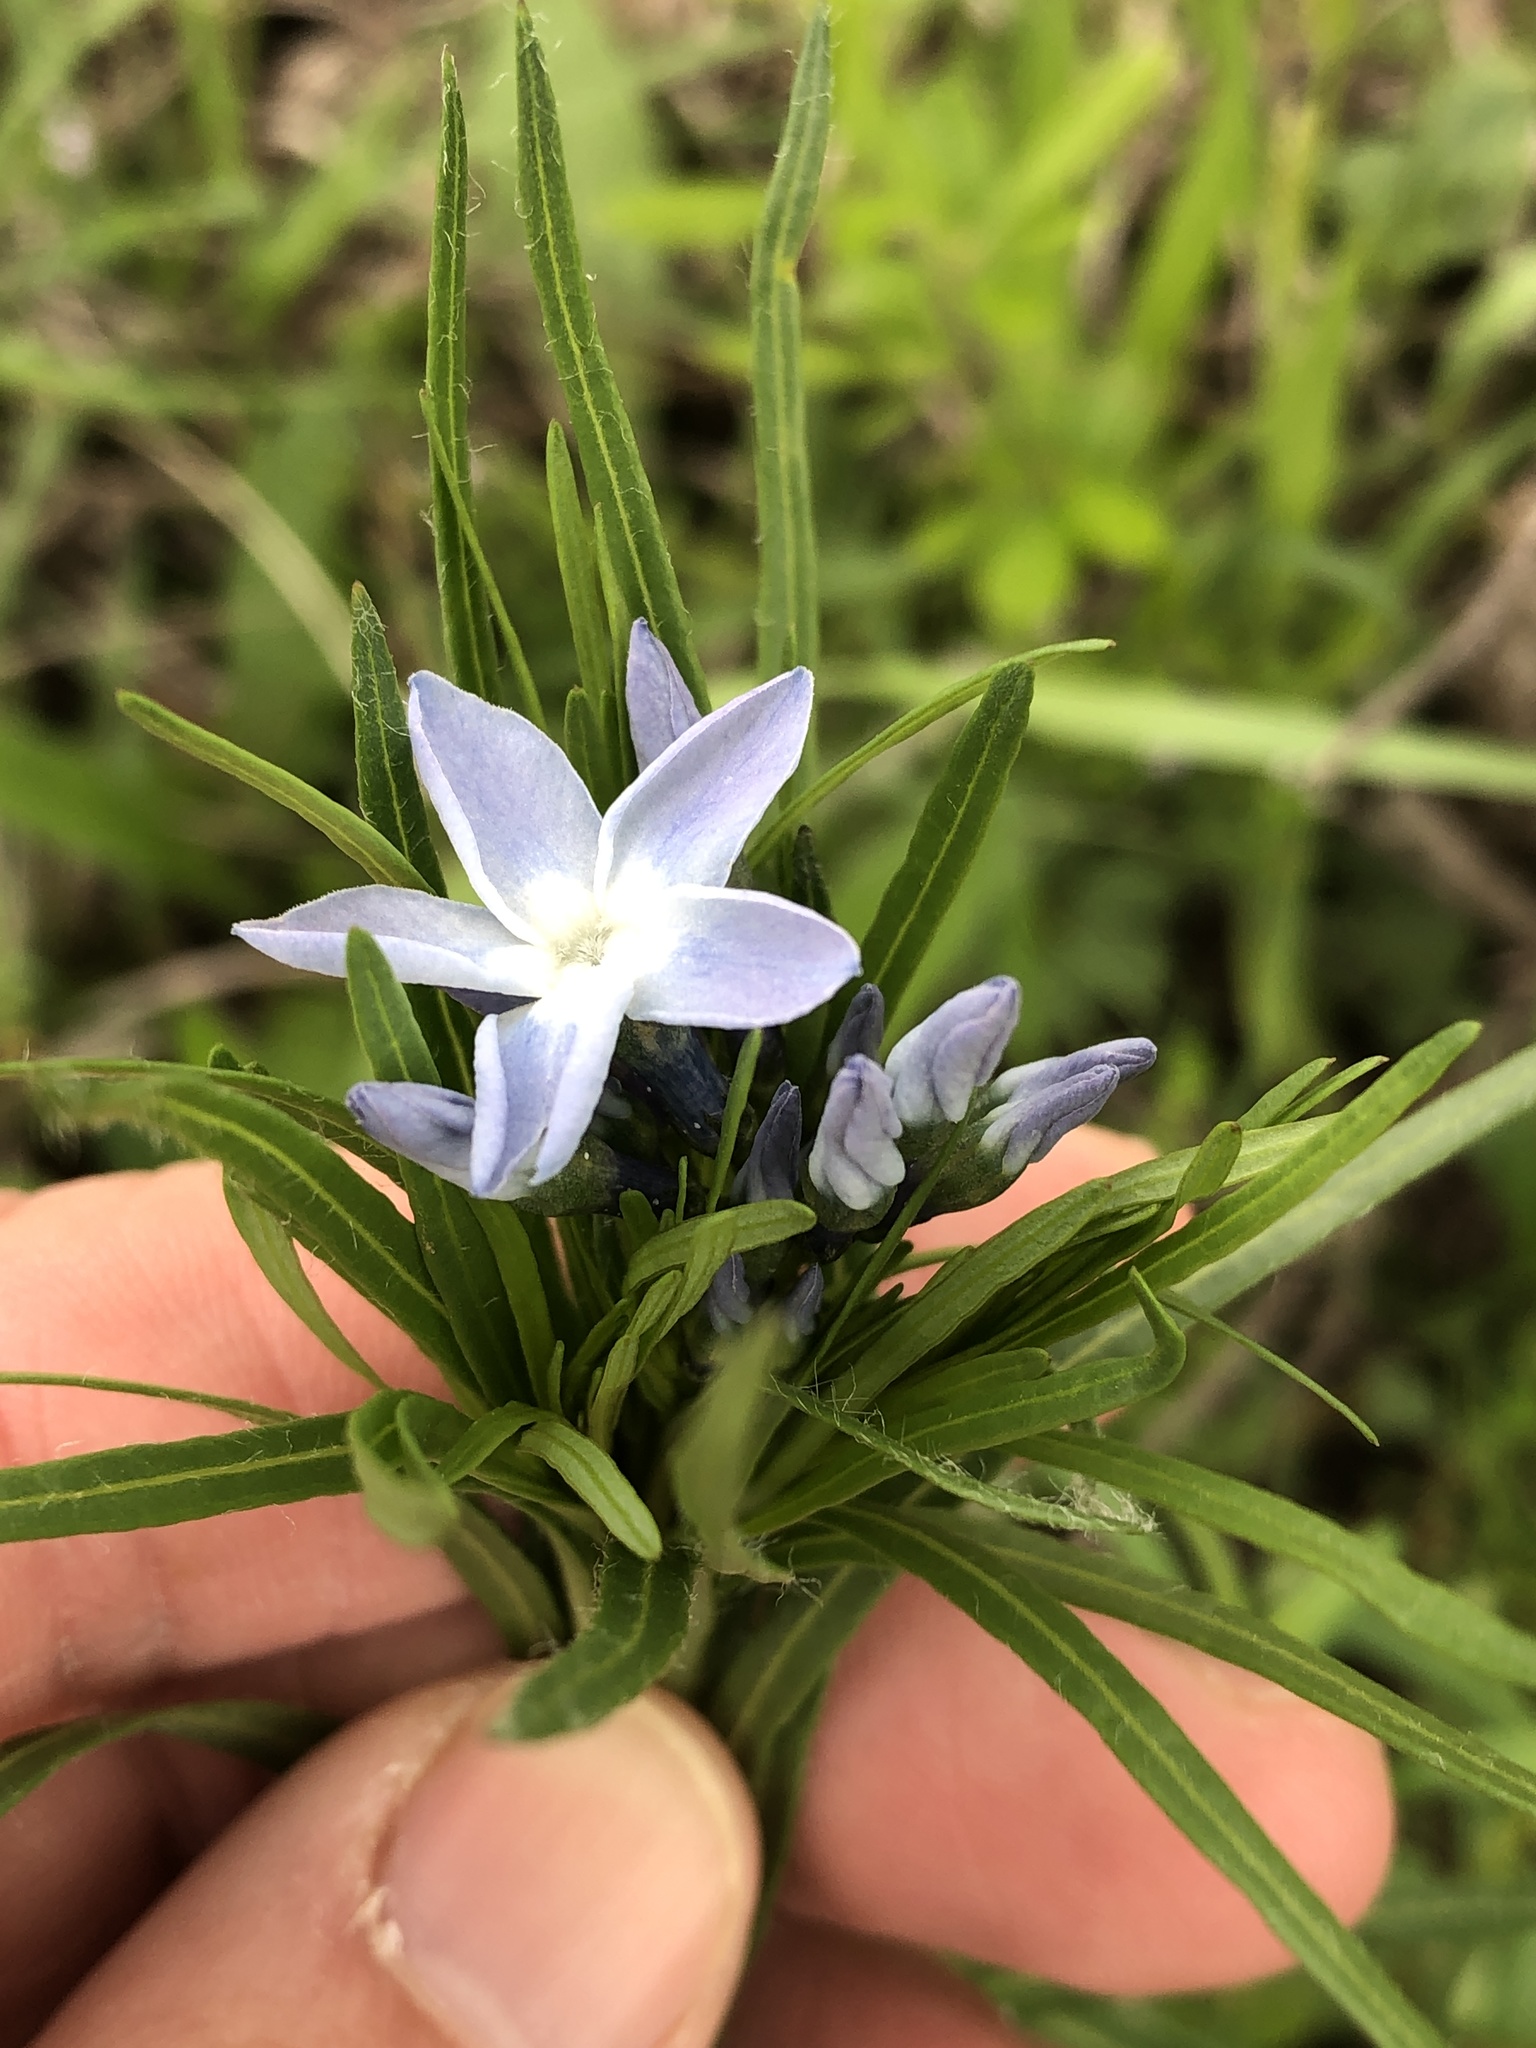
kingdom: Plantae
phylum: Tracheophyta
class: Magnoliopsida
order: Gentianales
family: Apocynaceae
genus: Amsonia
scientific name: Amsonia ciliata
